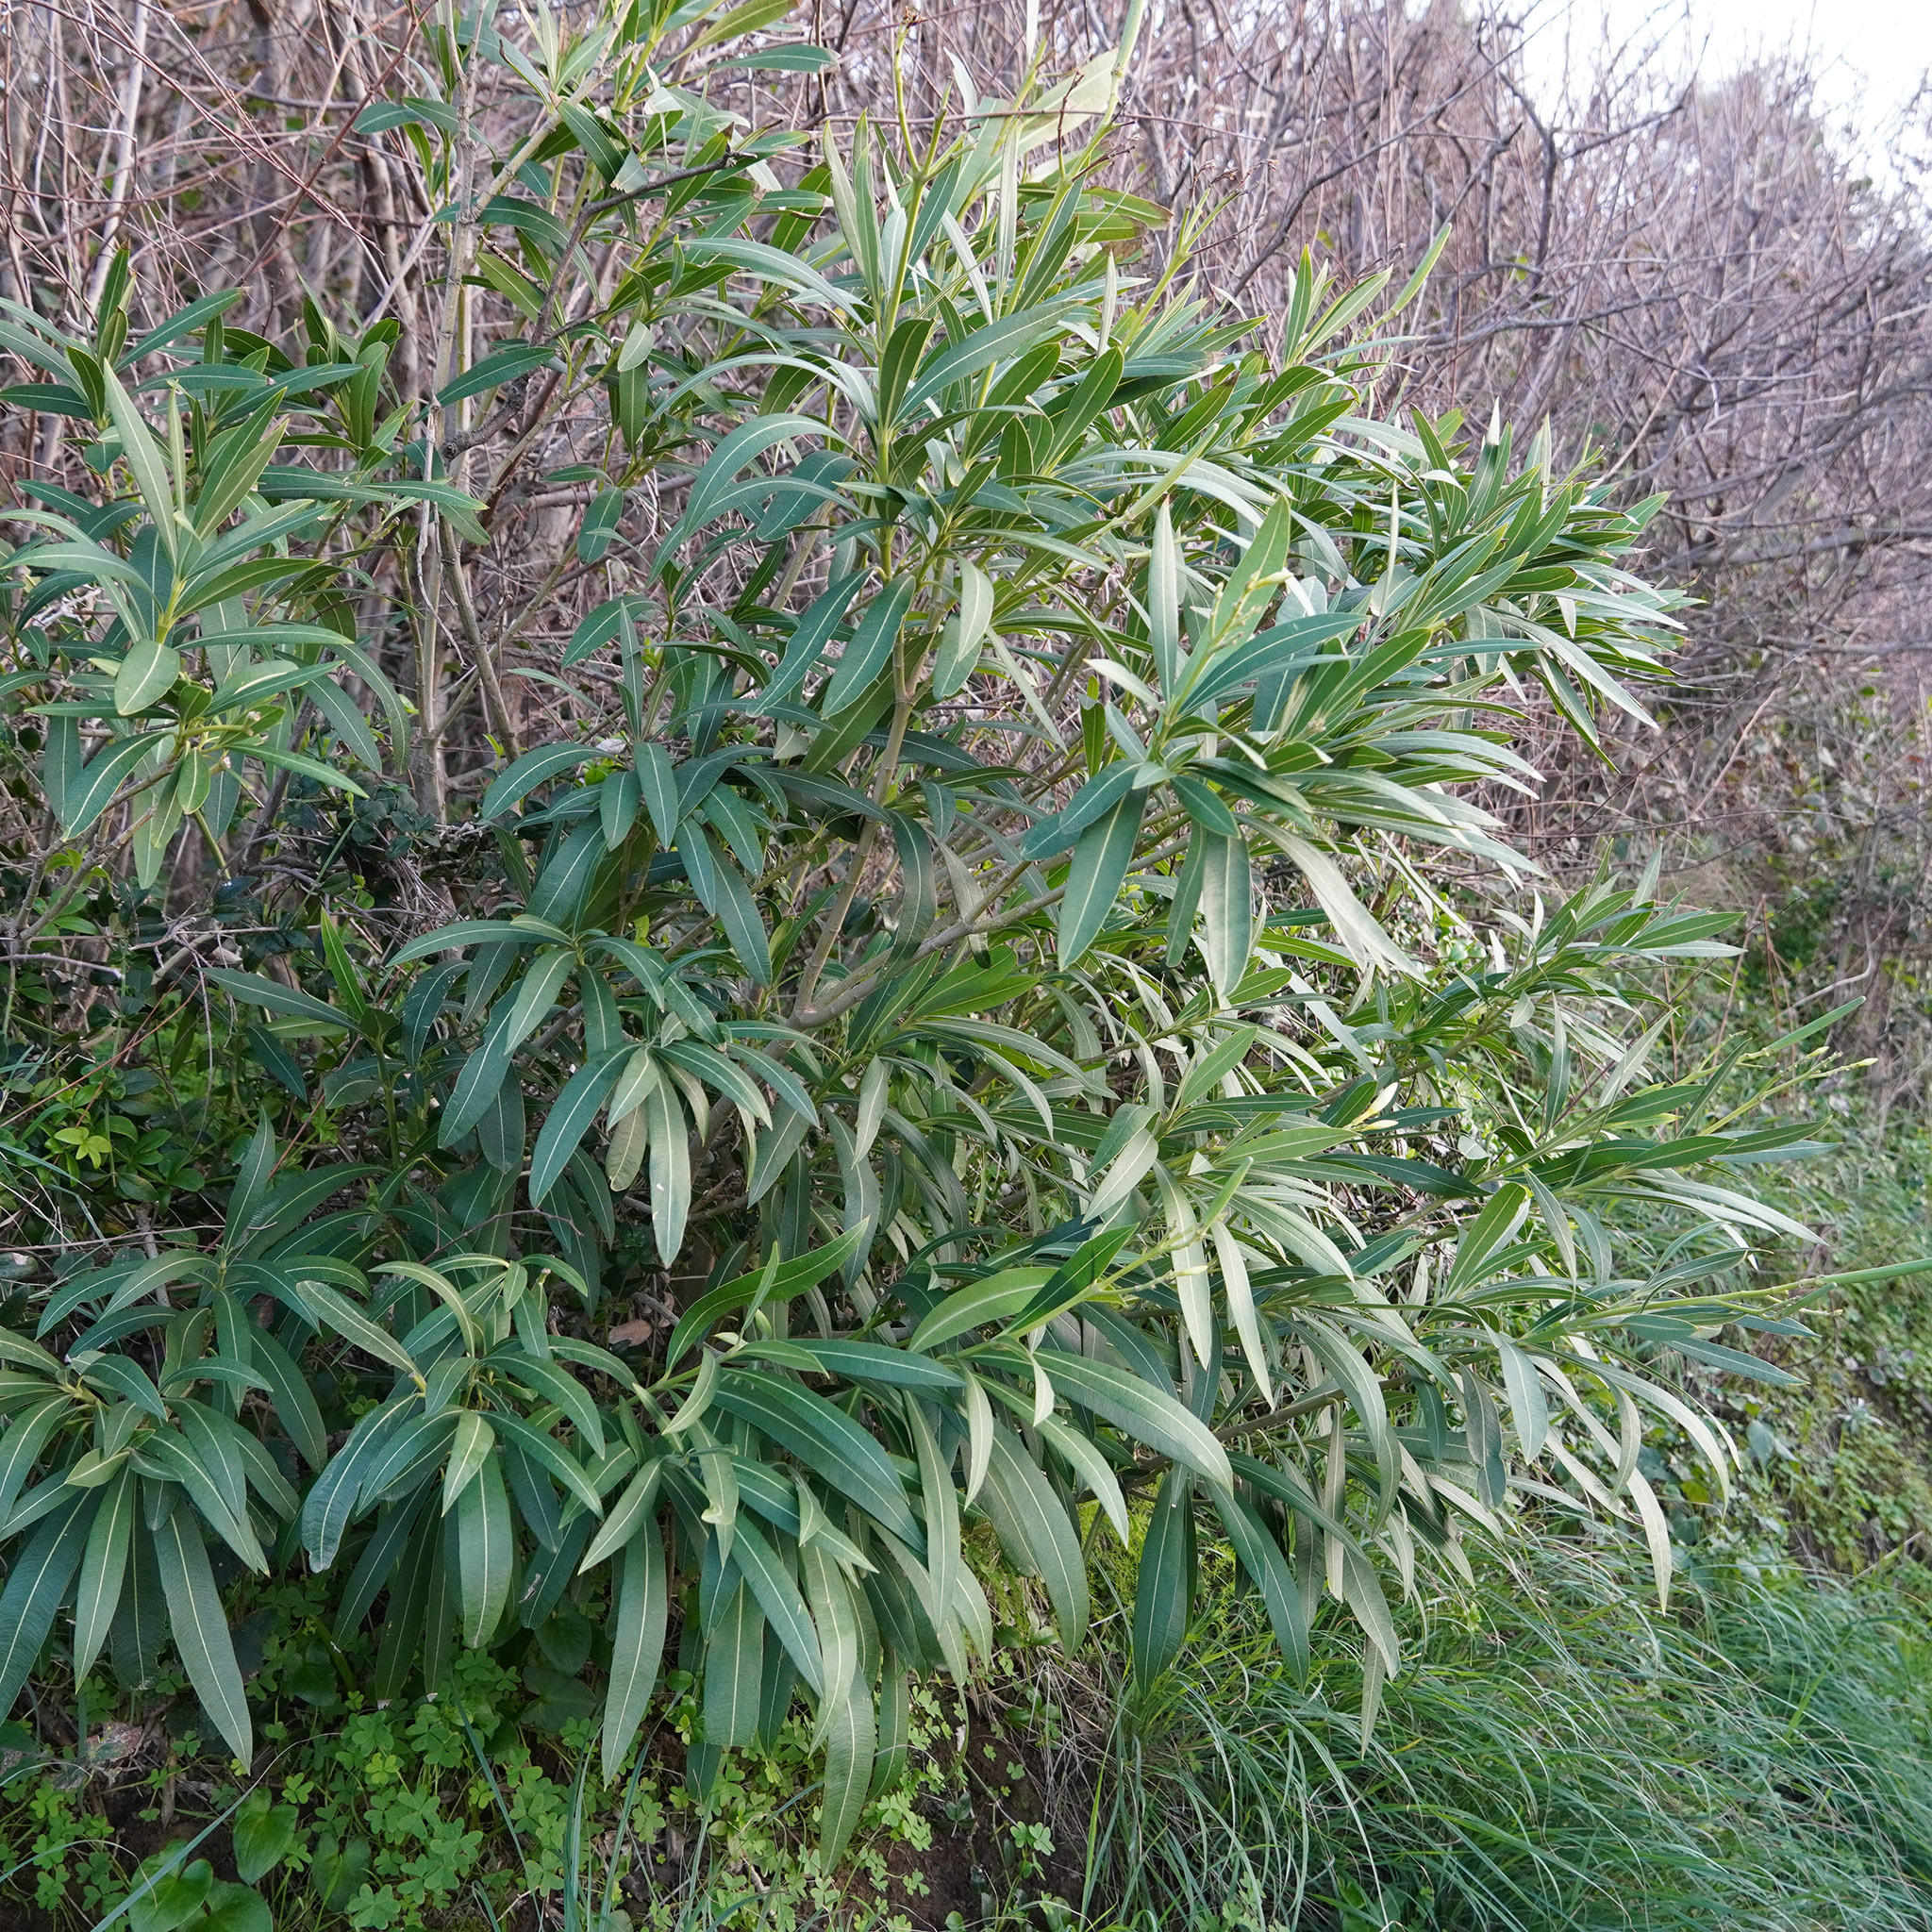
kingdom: Plantae
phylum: Tracheophyta
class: Magnoliopsida
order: Gentianales
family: Apocynaceae
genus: Nerium
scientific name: Nerium oleander
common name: Oleander
